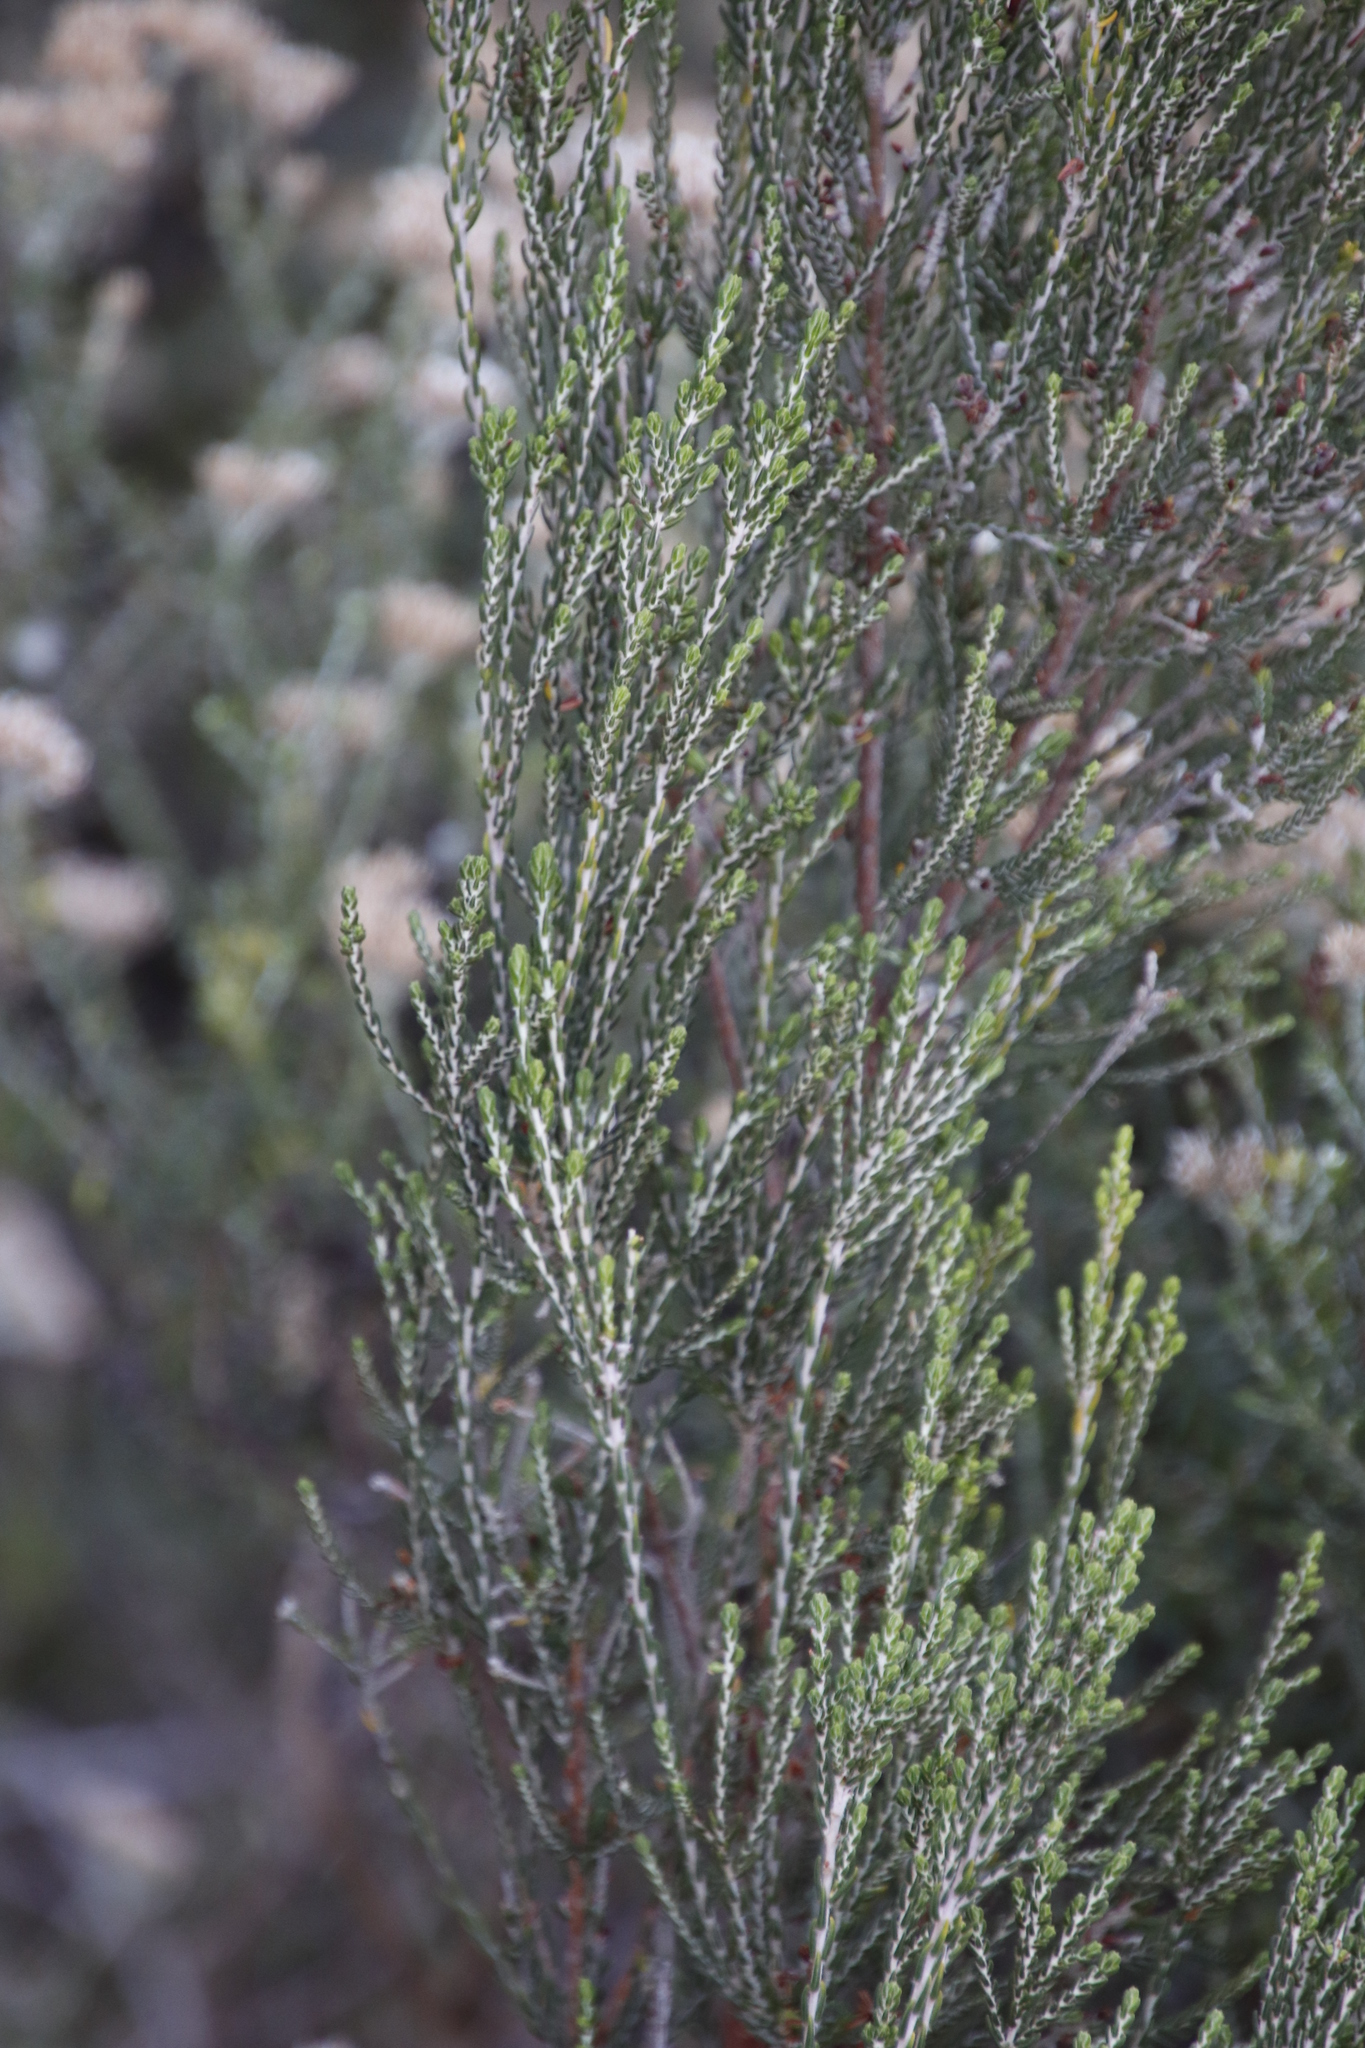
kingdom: Plantae
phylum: Tracheophyta
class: Magnoliopsida
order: Malvales
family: Thymelaeaceae
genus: Passerina
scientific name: Passerina corymbosa
